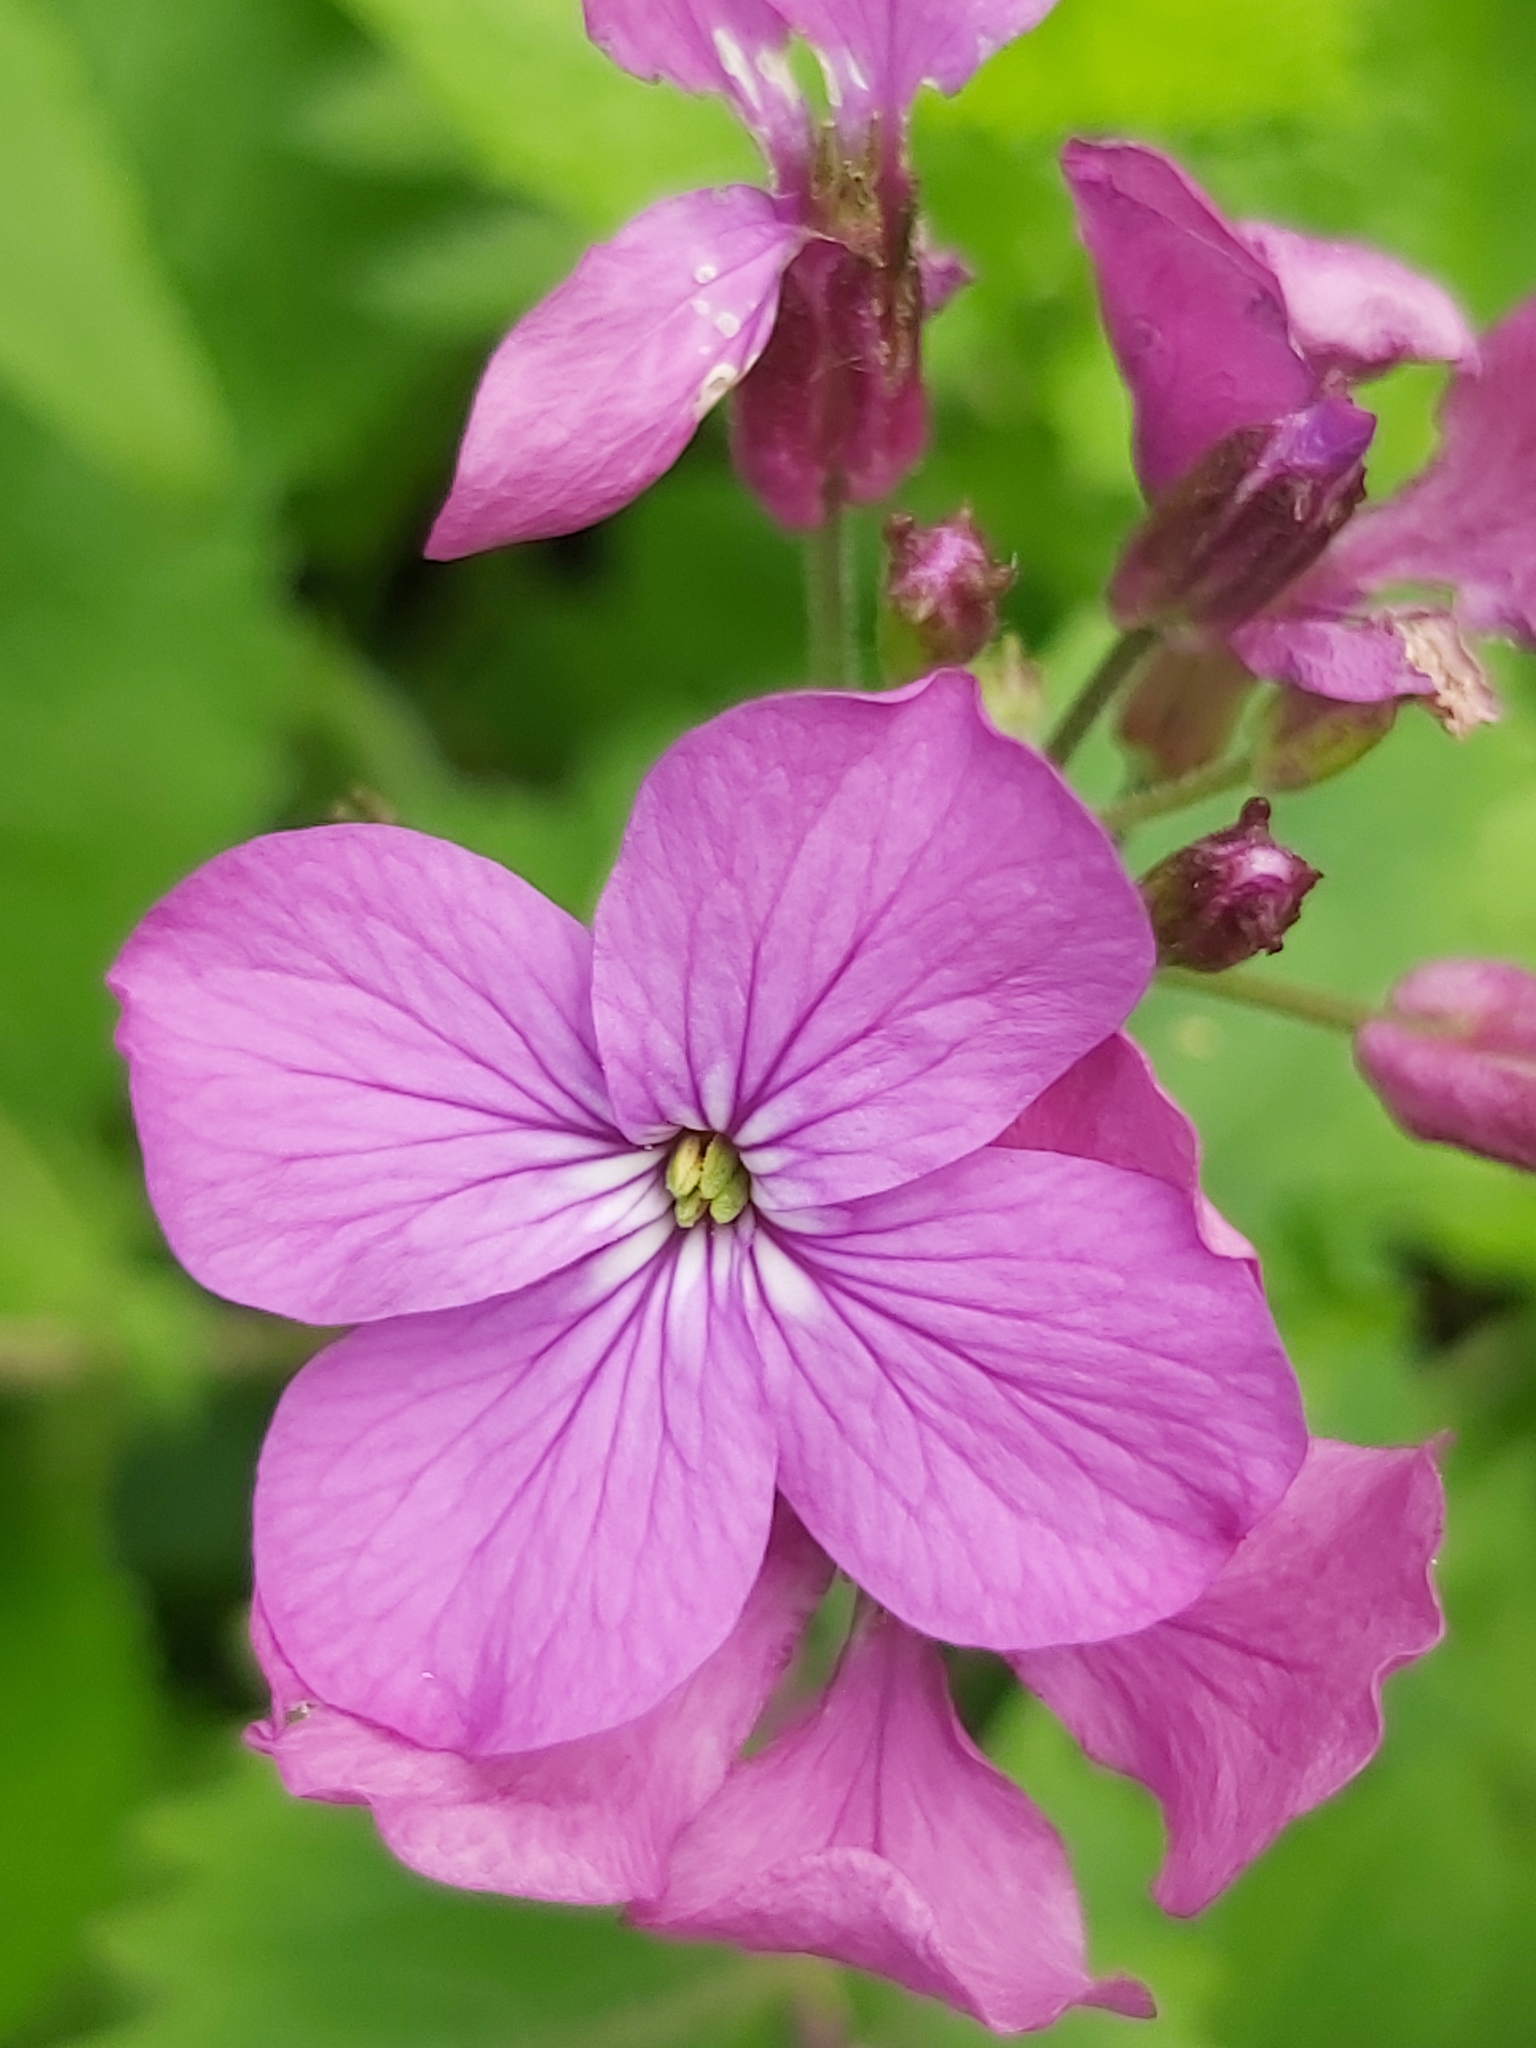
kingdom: Plantae
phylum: Tracheophyta
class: Magnoliopsida
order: Brassicales
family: Brassicaceae
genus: Lunaria
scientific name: Lunaria annua
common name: Honesty
